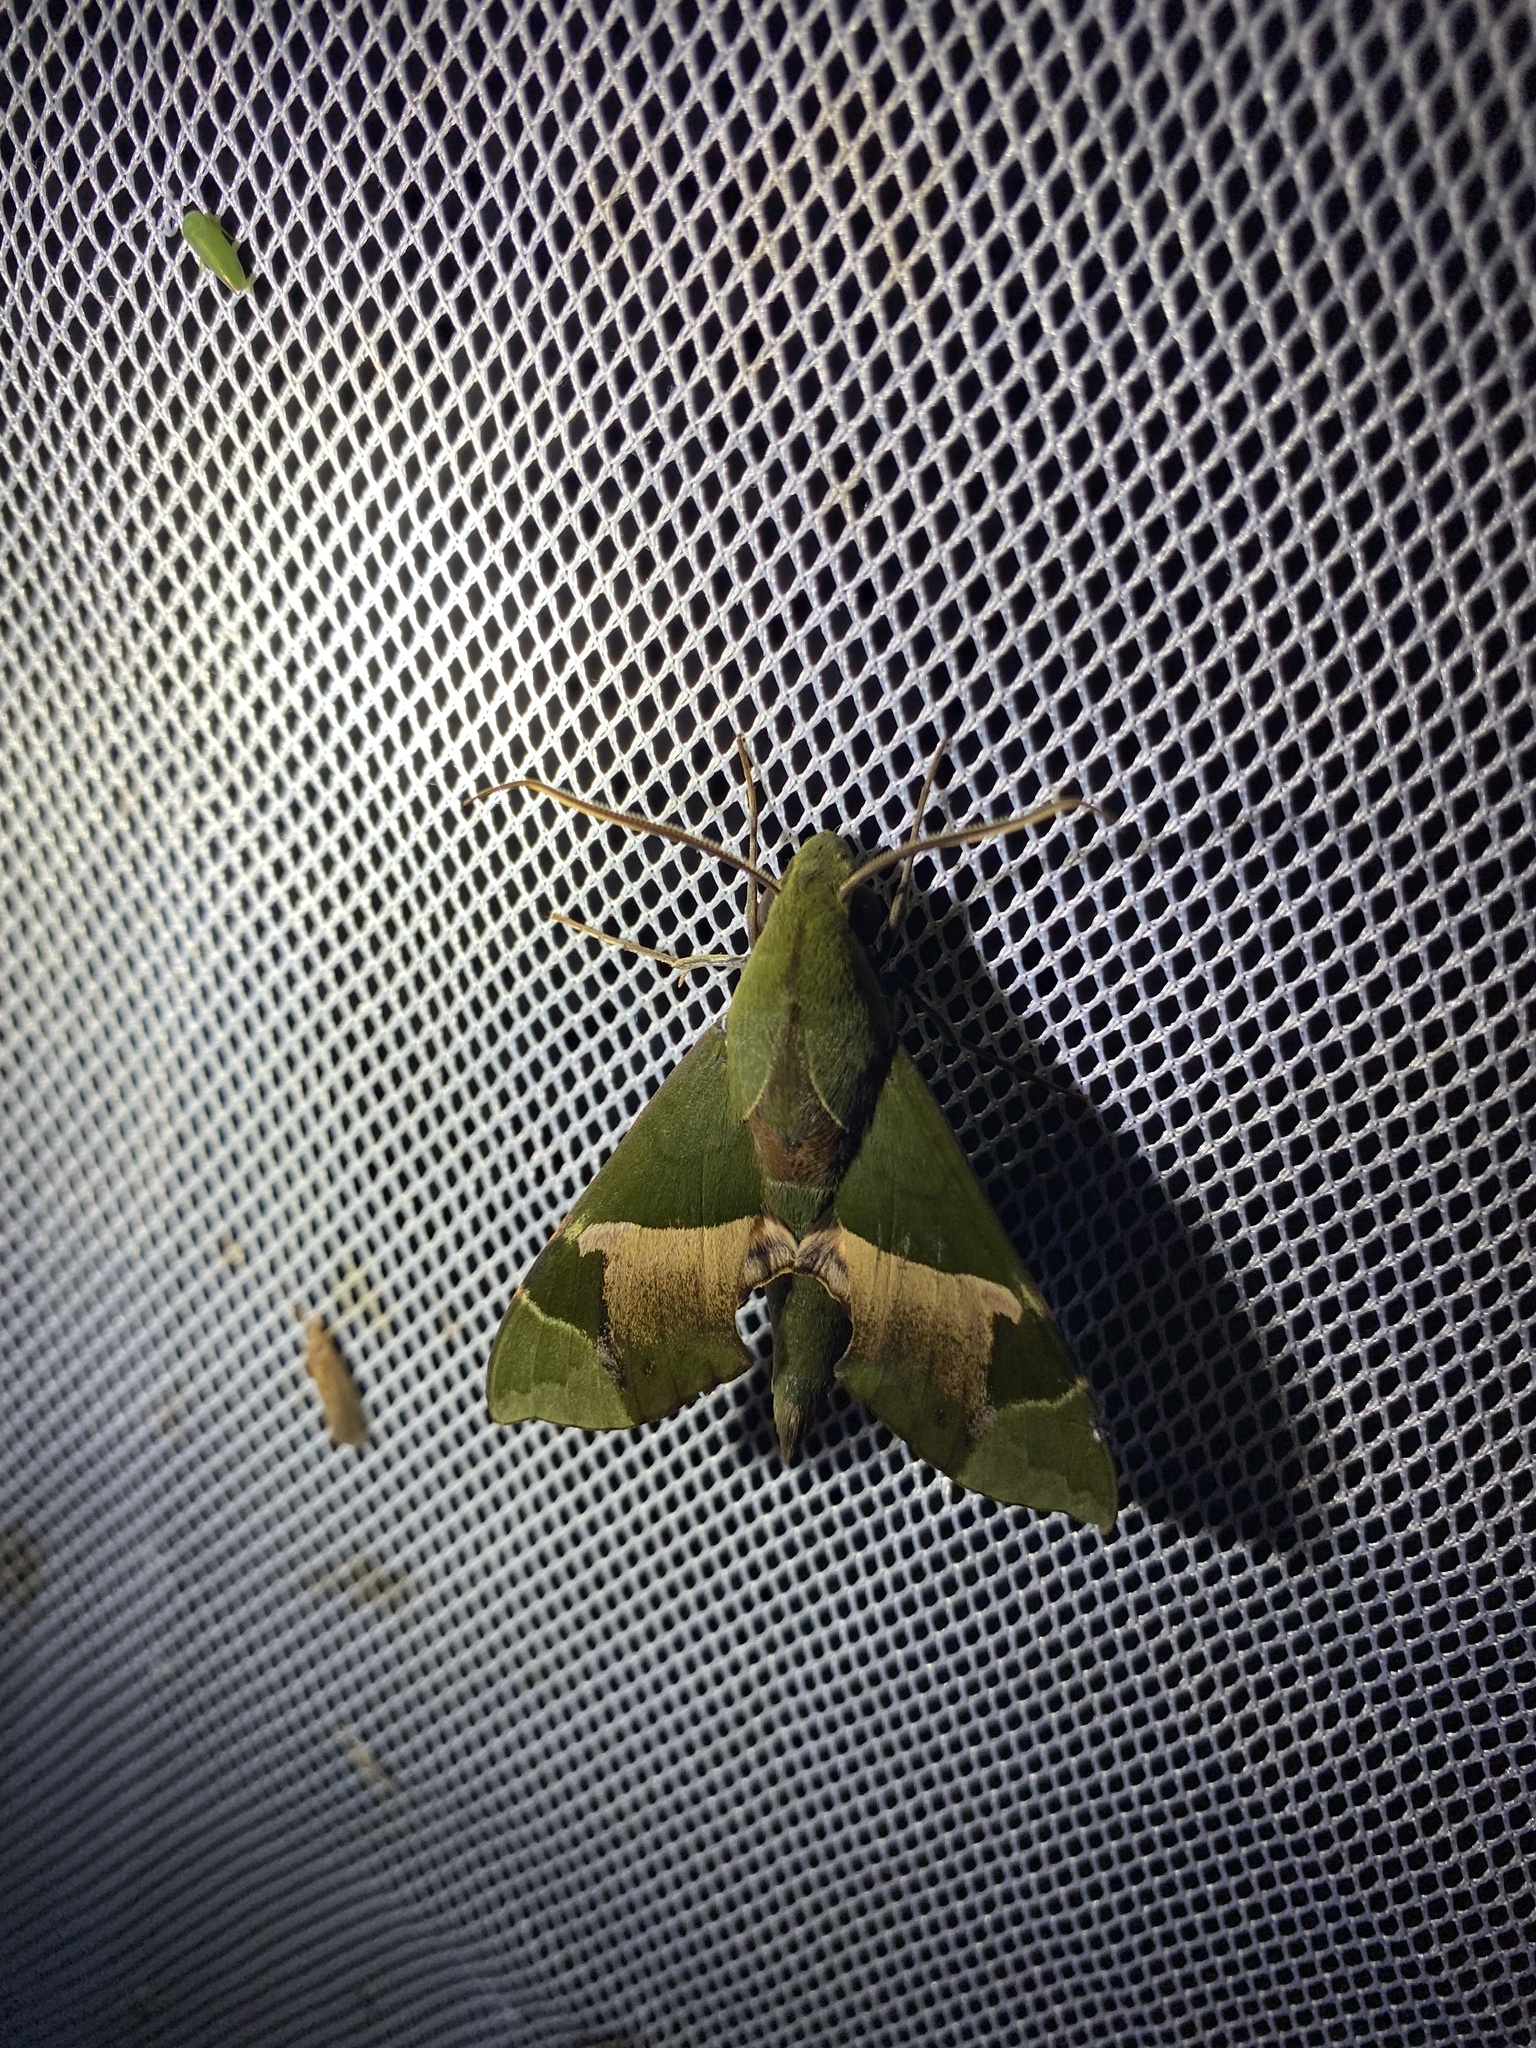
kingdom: Animalia
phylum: Arthropoda
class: Insecta
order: Lepidoptera
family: Sphingidae
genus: Angonyx
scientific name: Angonyx papuana
